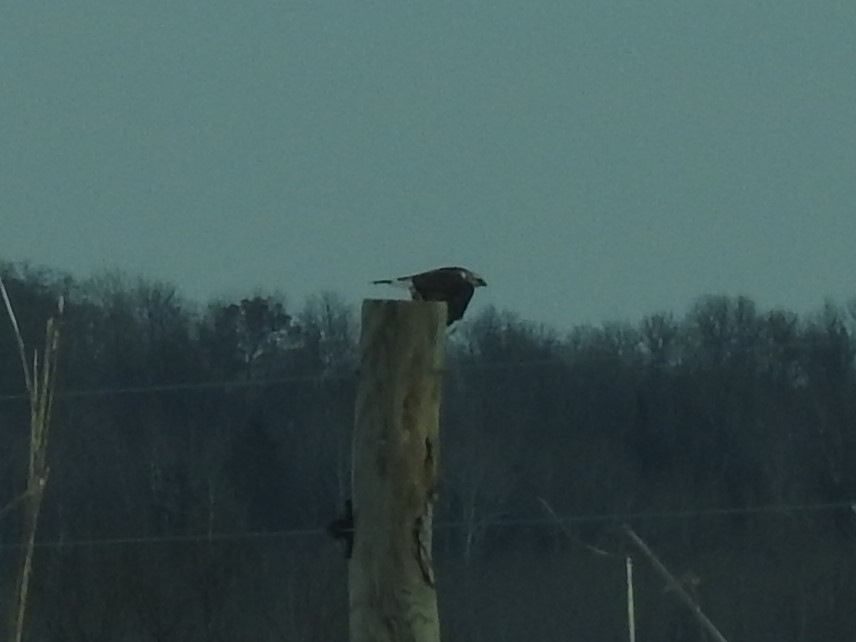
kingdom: Animalia
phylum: Chordata
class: Aves
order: Accipitriformes
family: Accipitridae
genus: Buteo
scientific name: Buteo lagopus
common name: Rough-legged buzzard
